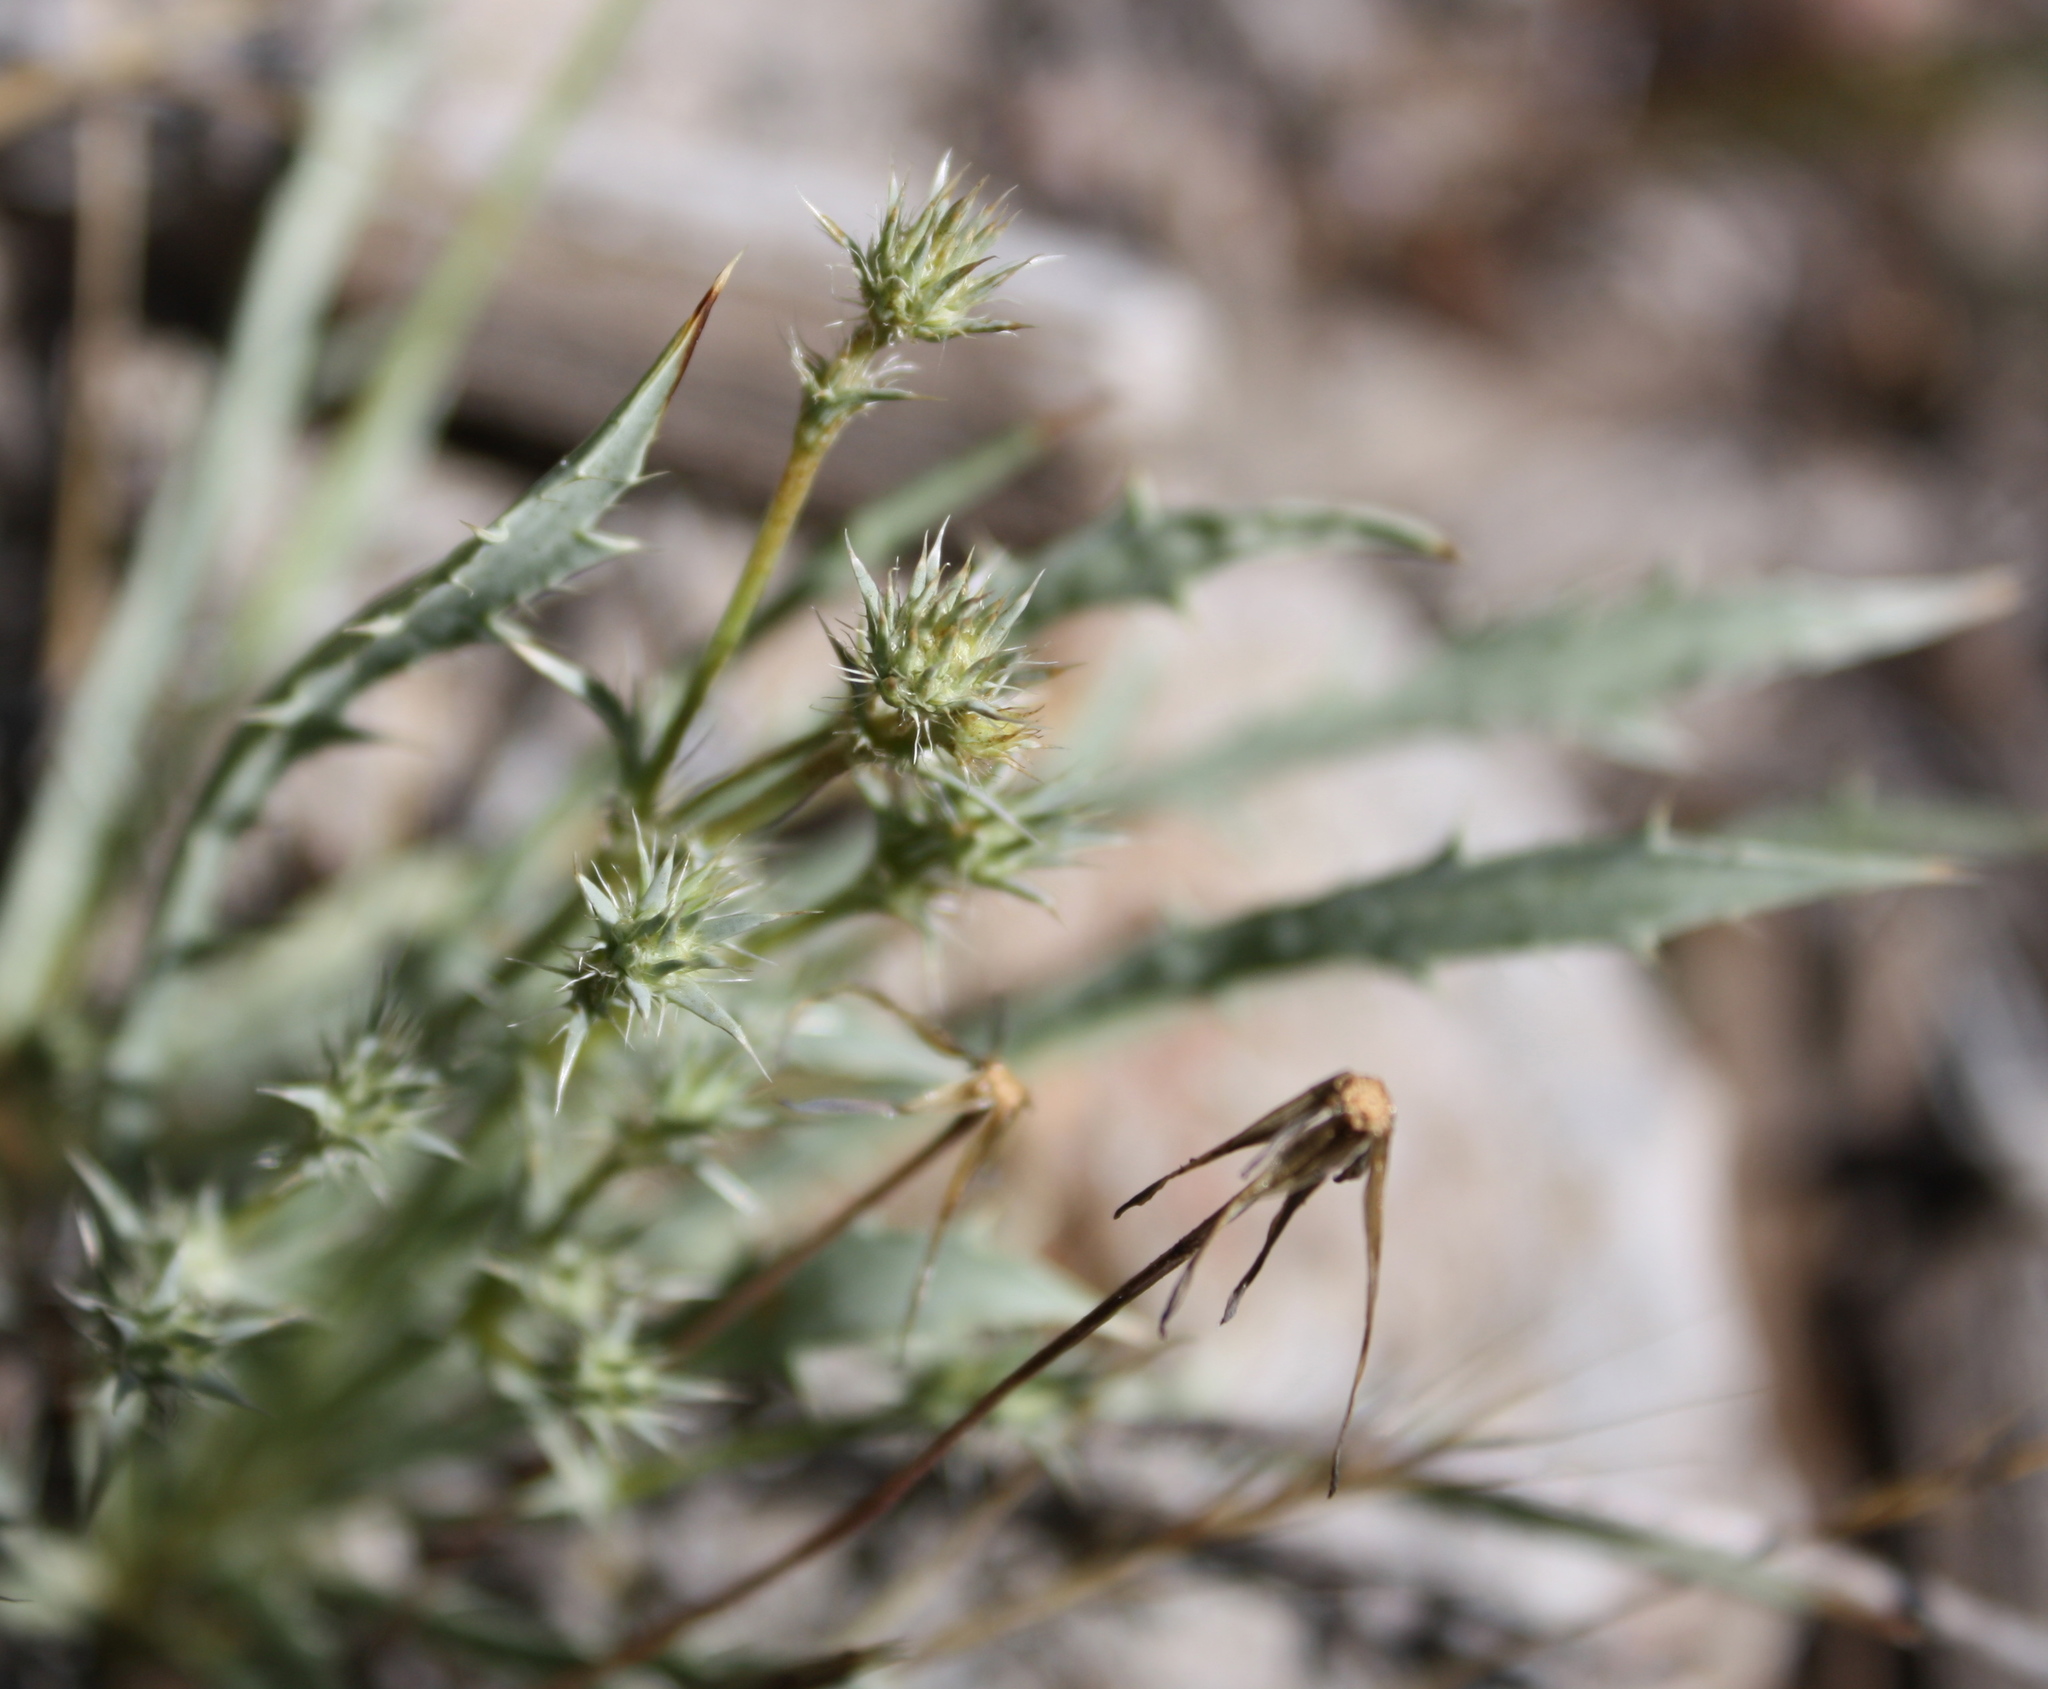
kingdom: Plantae
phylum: Tracheophyta
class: Magnoliopsida
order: Apiales
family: Apiaceae
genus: Eryngium
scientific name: Eryngium aristulatum
